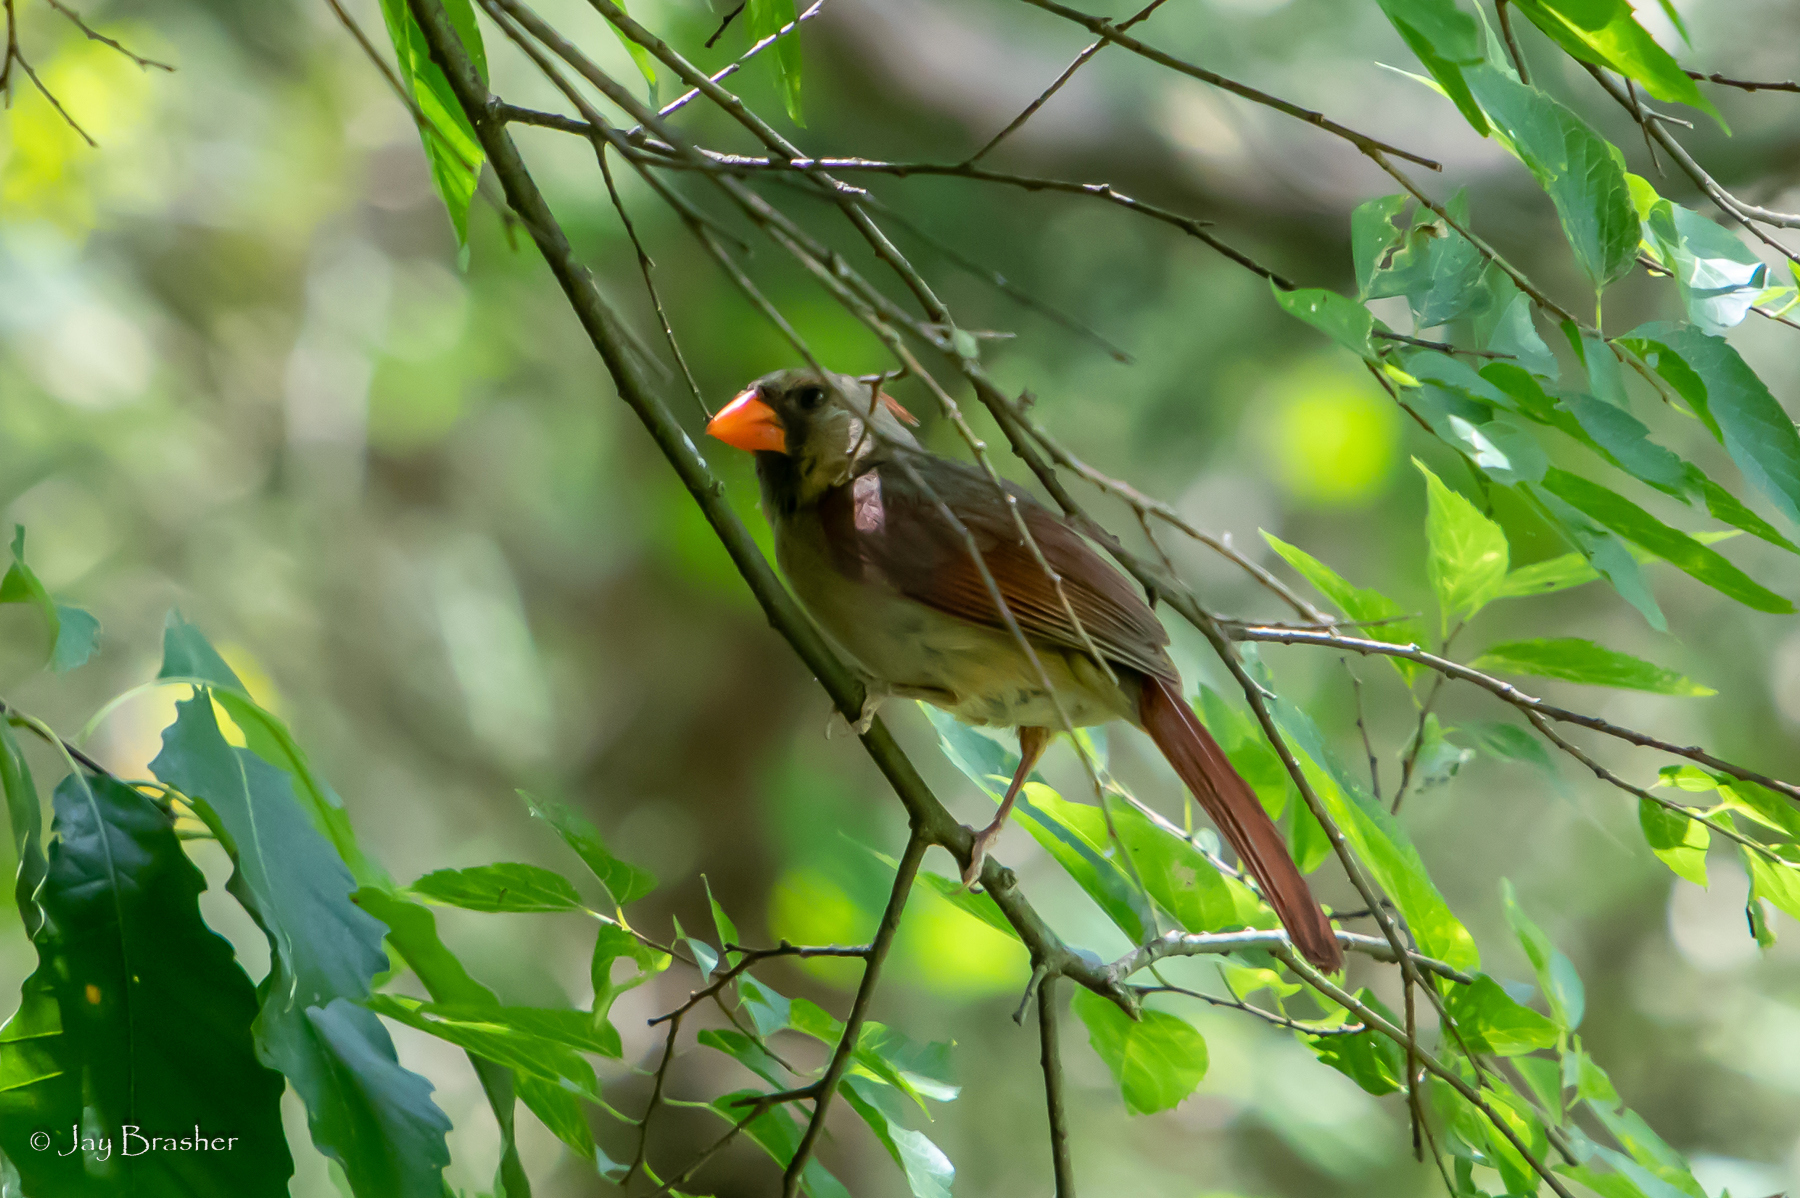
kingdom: Animalia
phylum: Chordata
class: Aves
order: Passeriformes
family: Cardinalidae
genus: Cardinalis
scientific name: Cardinalis cardinalis
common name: Northern cardinal
